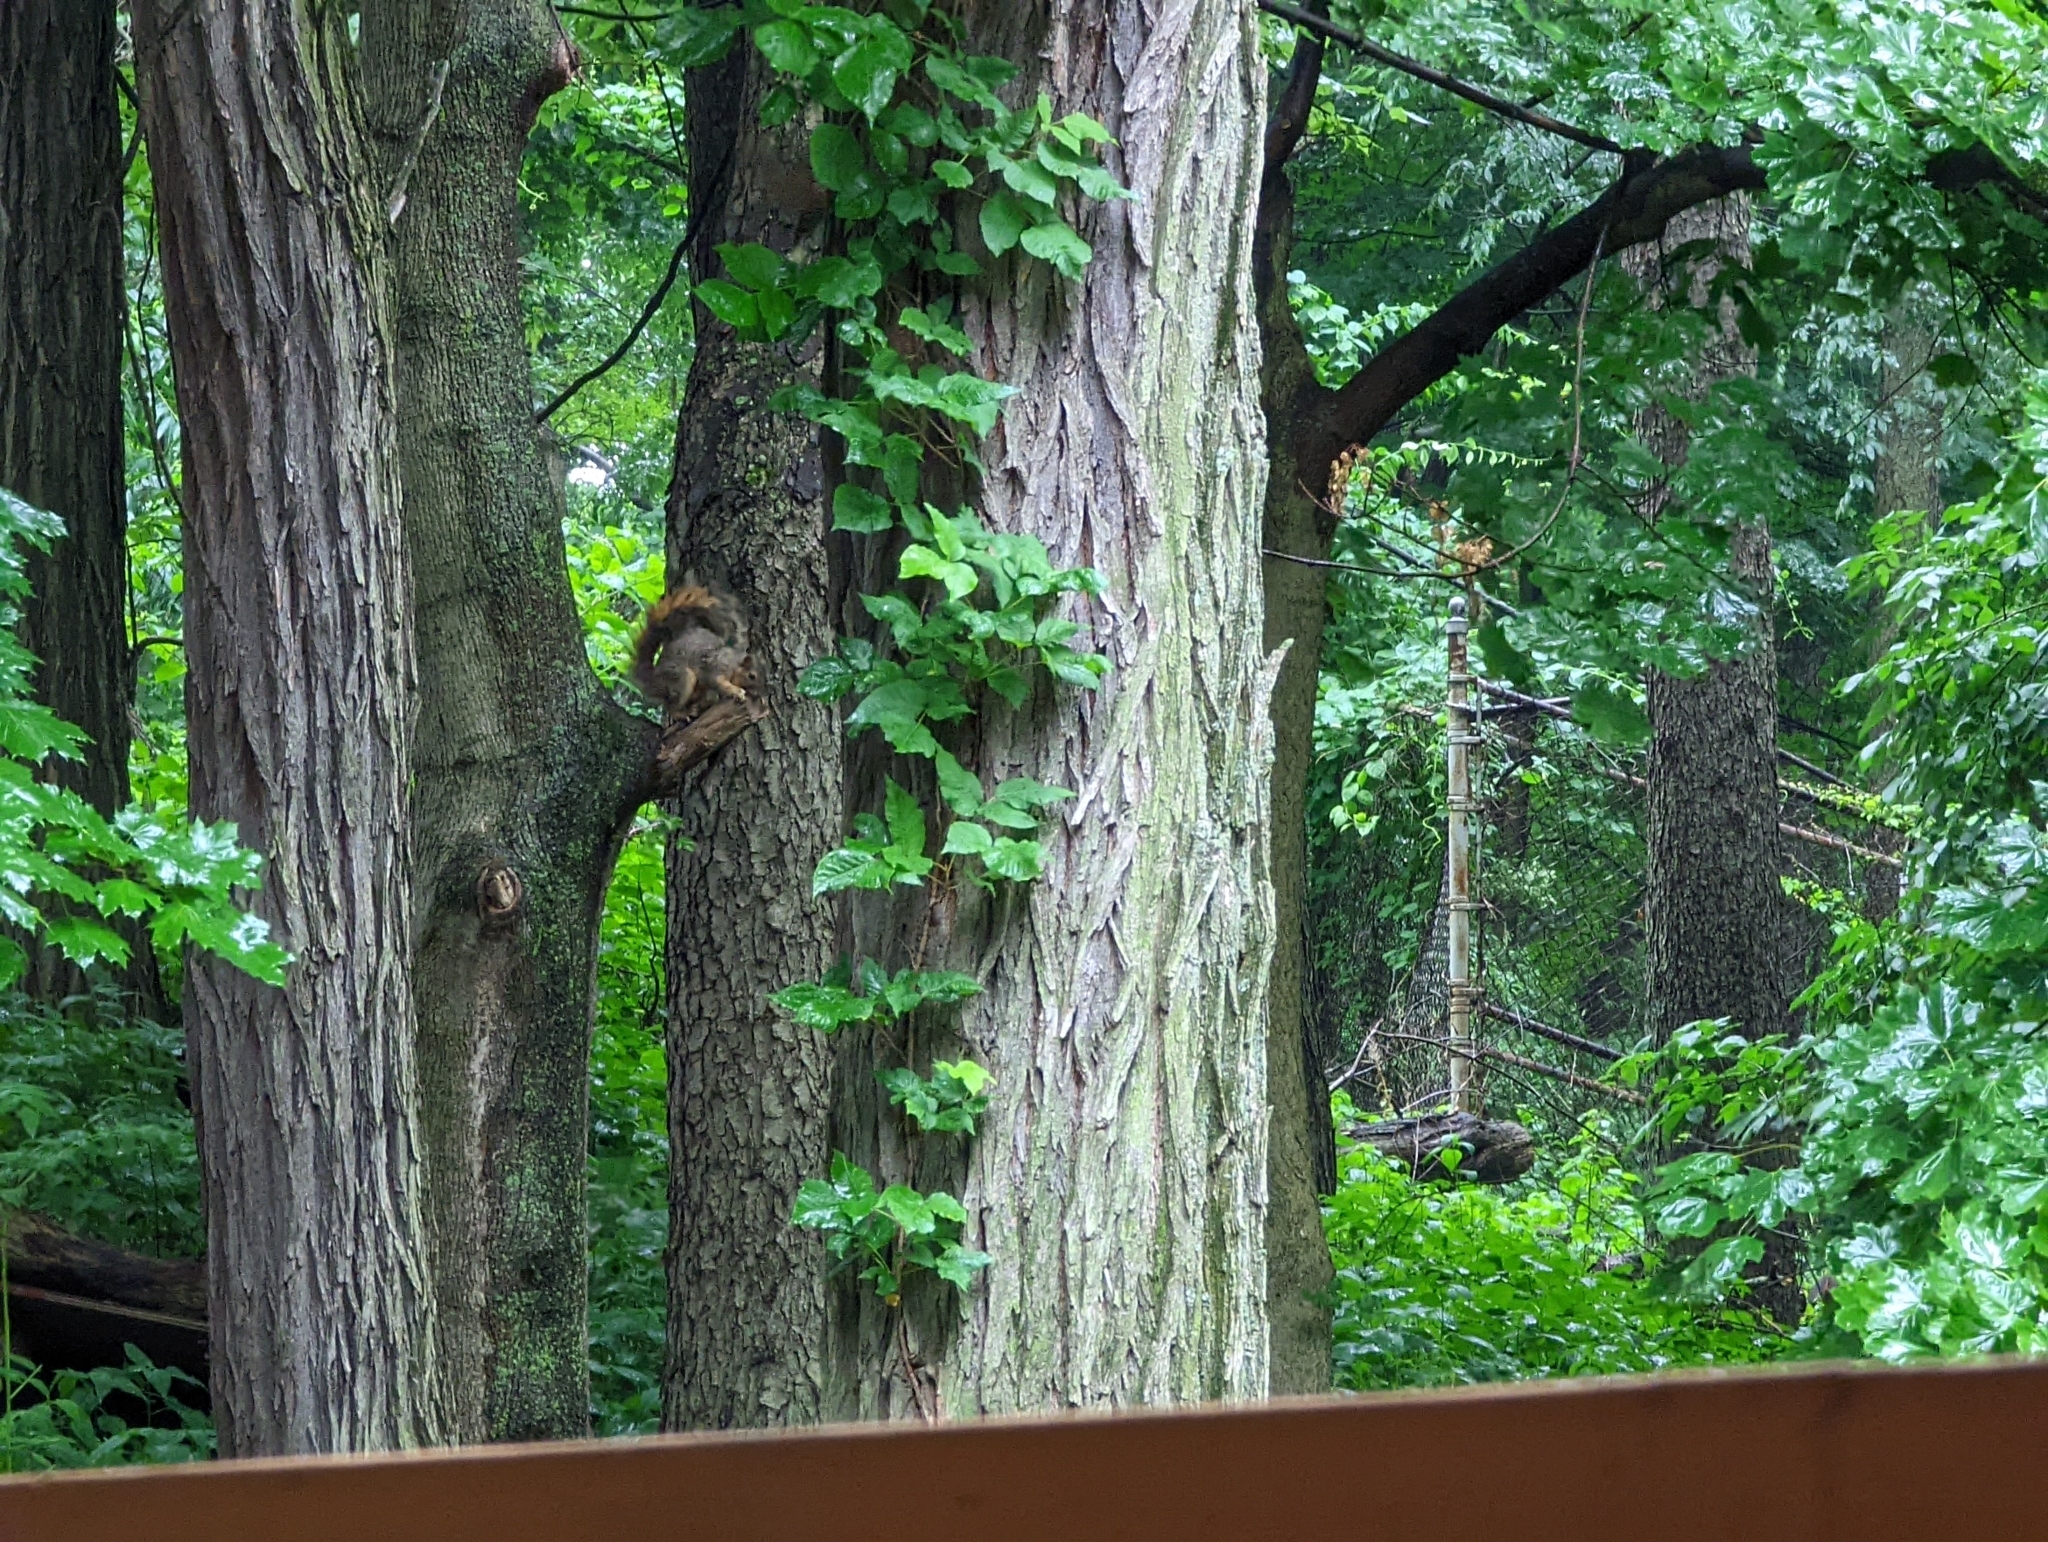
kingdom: Animalia
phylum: Chordata
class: Mammalia
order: Rodentia
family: Sciuridae
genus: Sciurus
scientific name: Sciurus niger
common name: Fox squirrel
